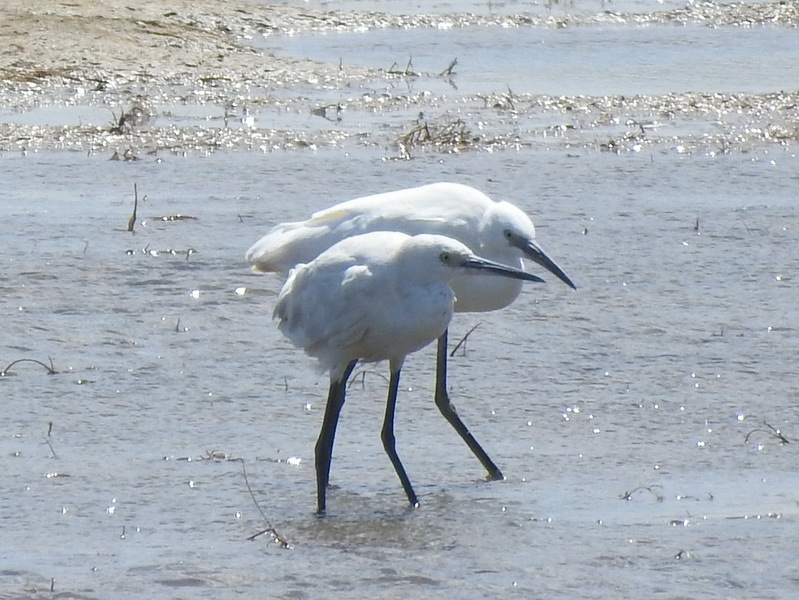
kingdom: Animalia
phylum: Chordata
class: Aves
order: Pelecaniformes
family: Ardeidae
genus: Egretta
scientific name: Egretta garzetta
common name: Little egret
